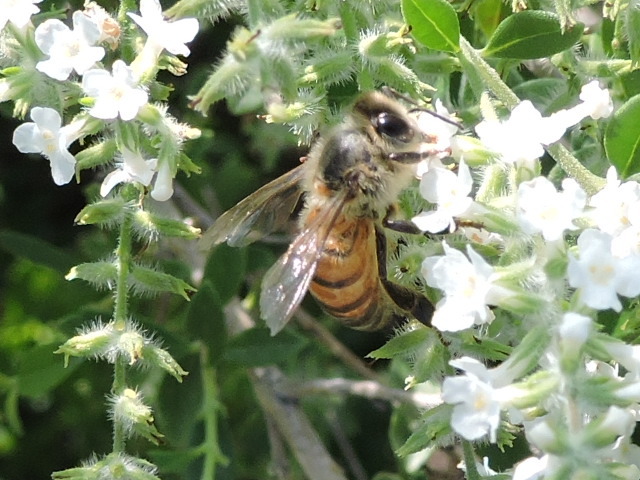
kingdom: Animalia
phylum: Arthropoda
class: Insecta
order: Hymenoptera
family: Apidae
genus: Apis
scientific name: Apis mellifera
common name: Honey bee
